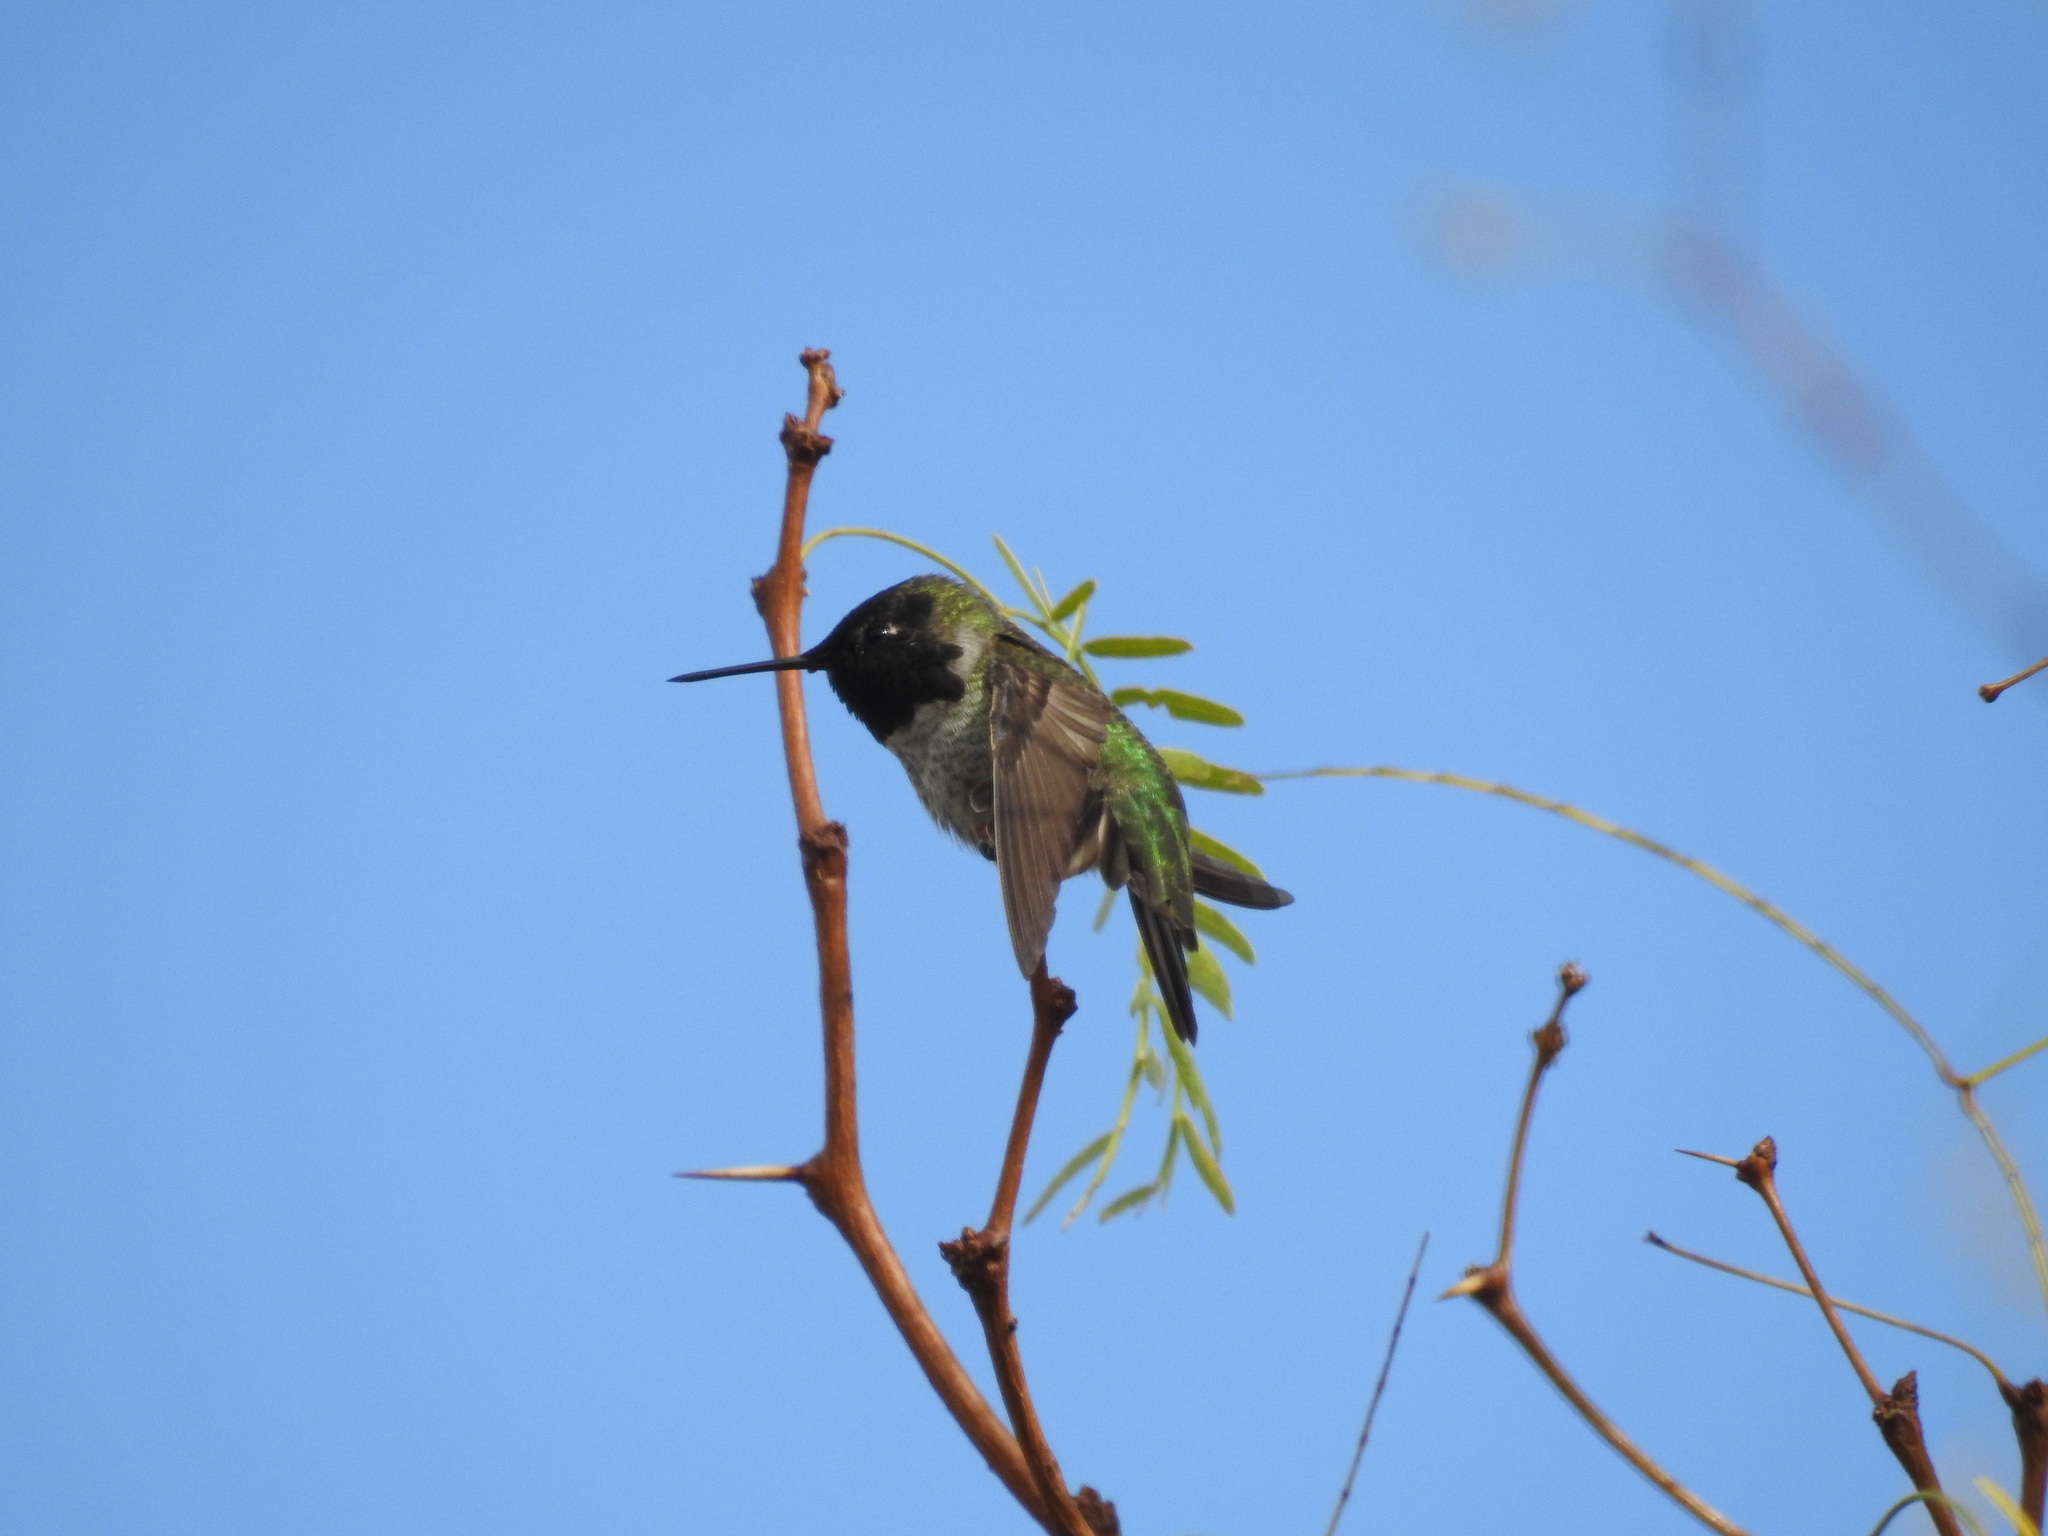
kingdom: Animalia
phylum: Chordata
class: Aves
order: Apodiformes
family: Trochilidae
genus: Calypte
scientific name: Calypte anna
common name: Anna's hummingbird
